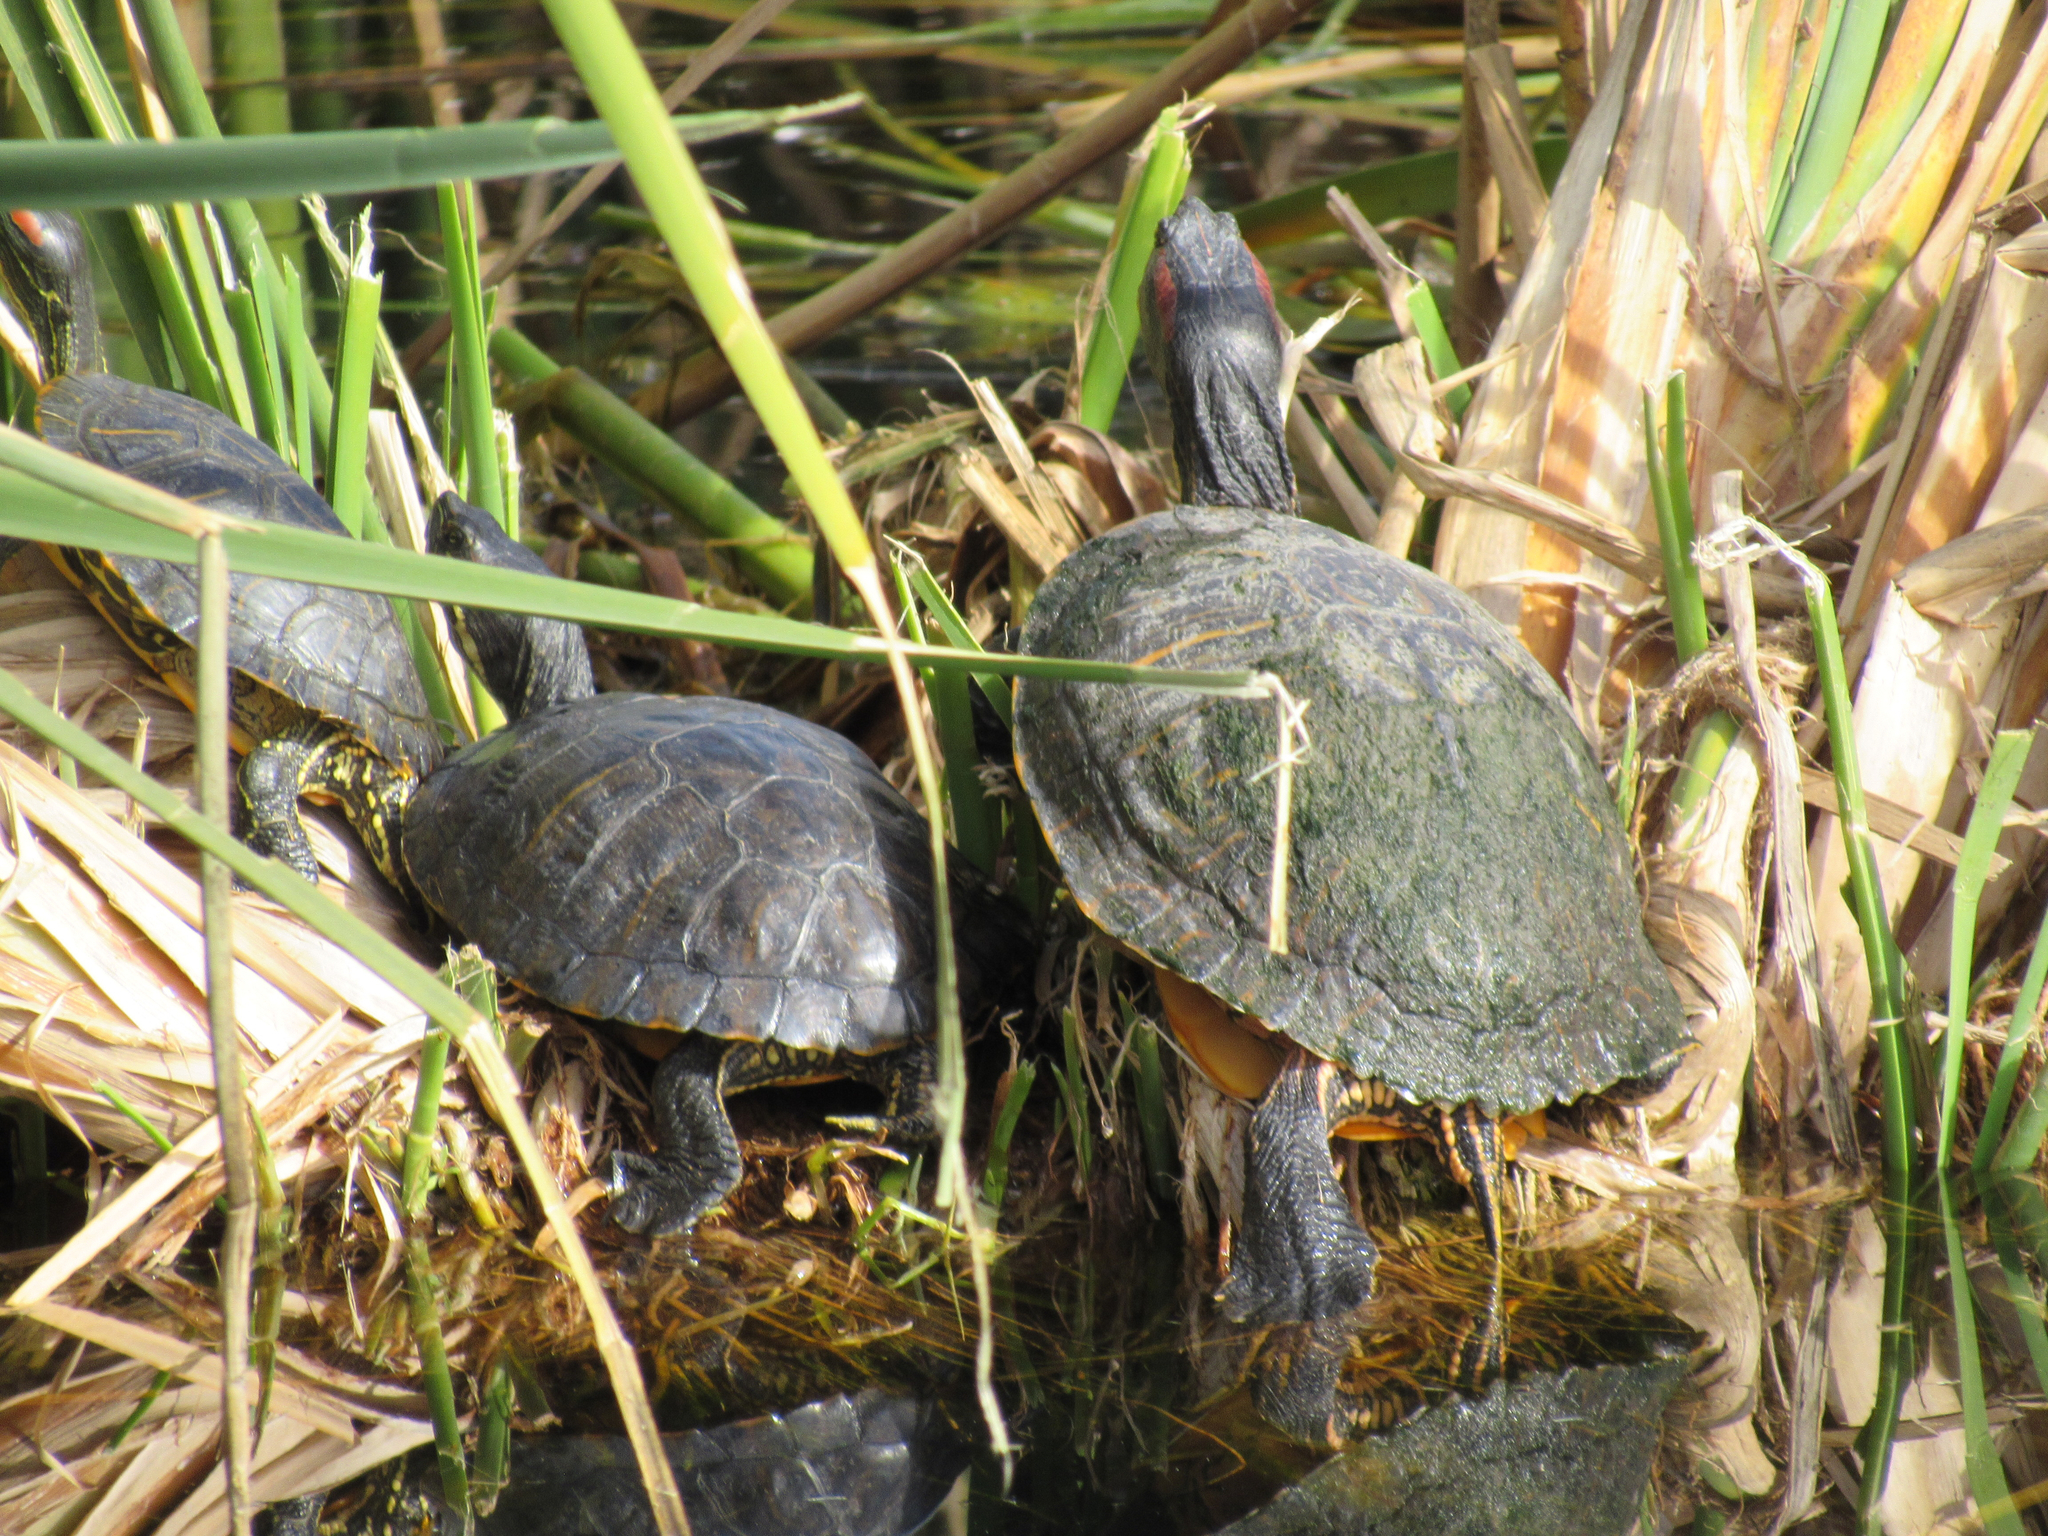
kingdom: Animalia
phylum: Chordata
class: Testudines
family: Emydidae
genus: Trachemys
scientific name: Trachemys scripta
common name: Slider
